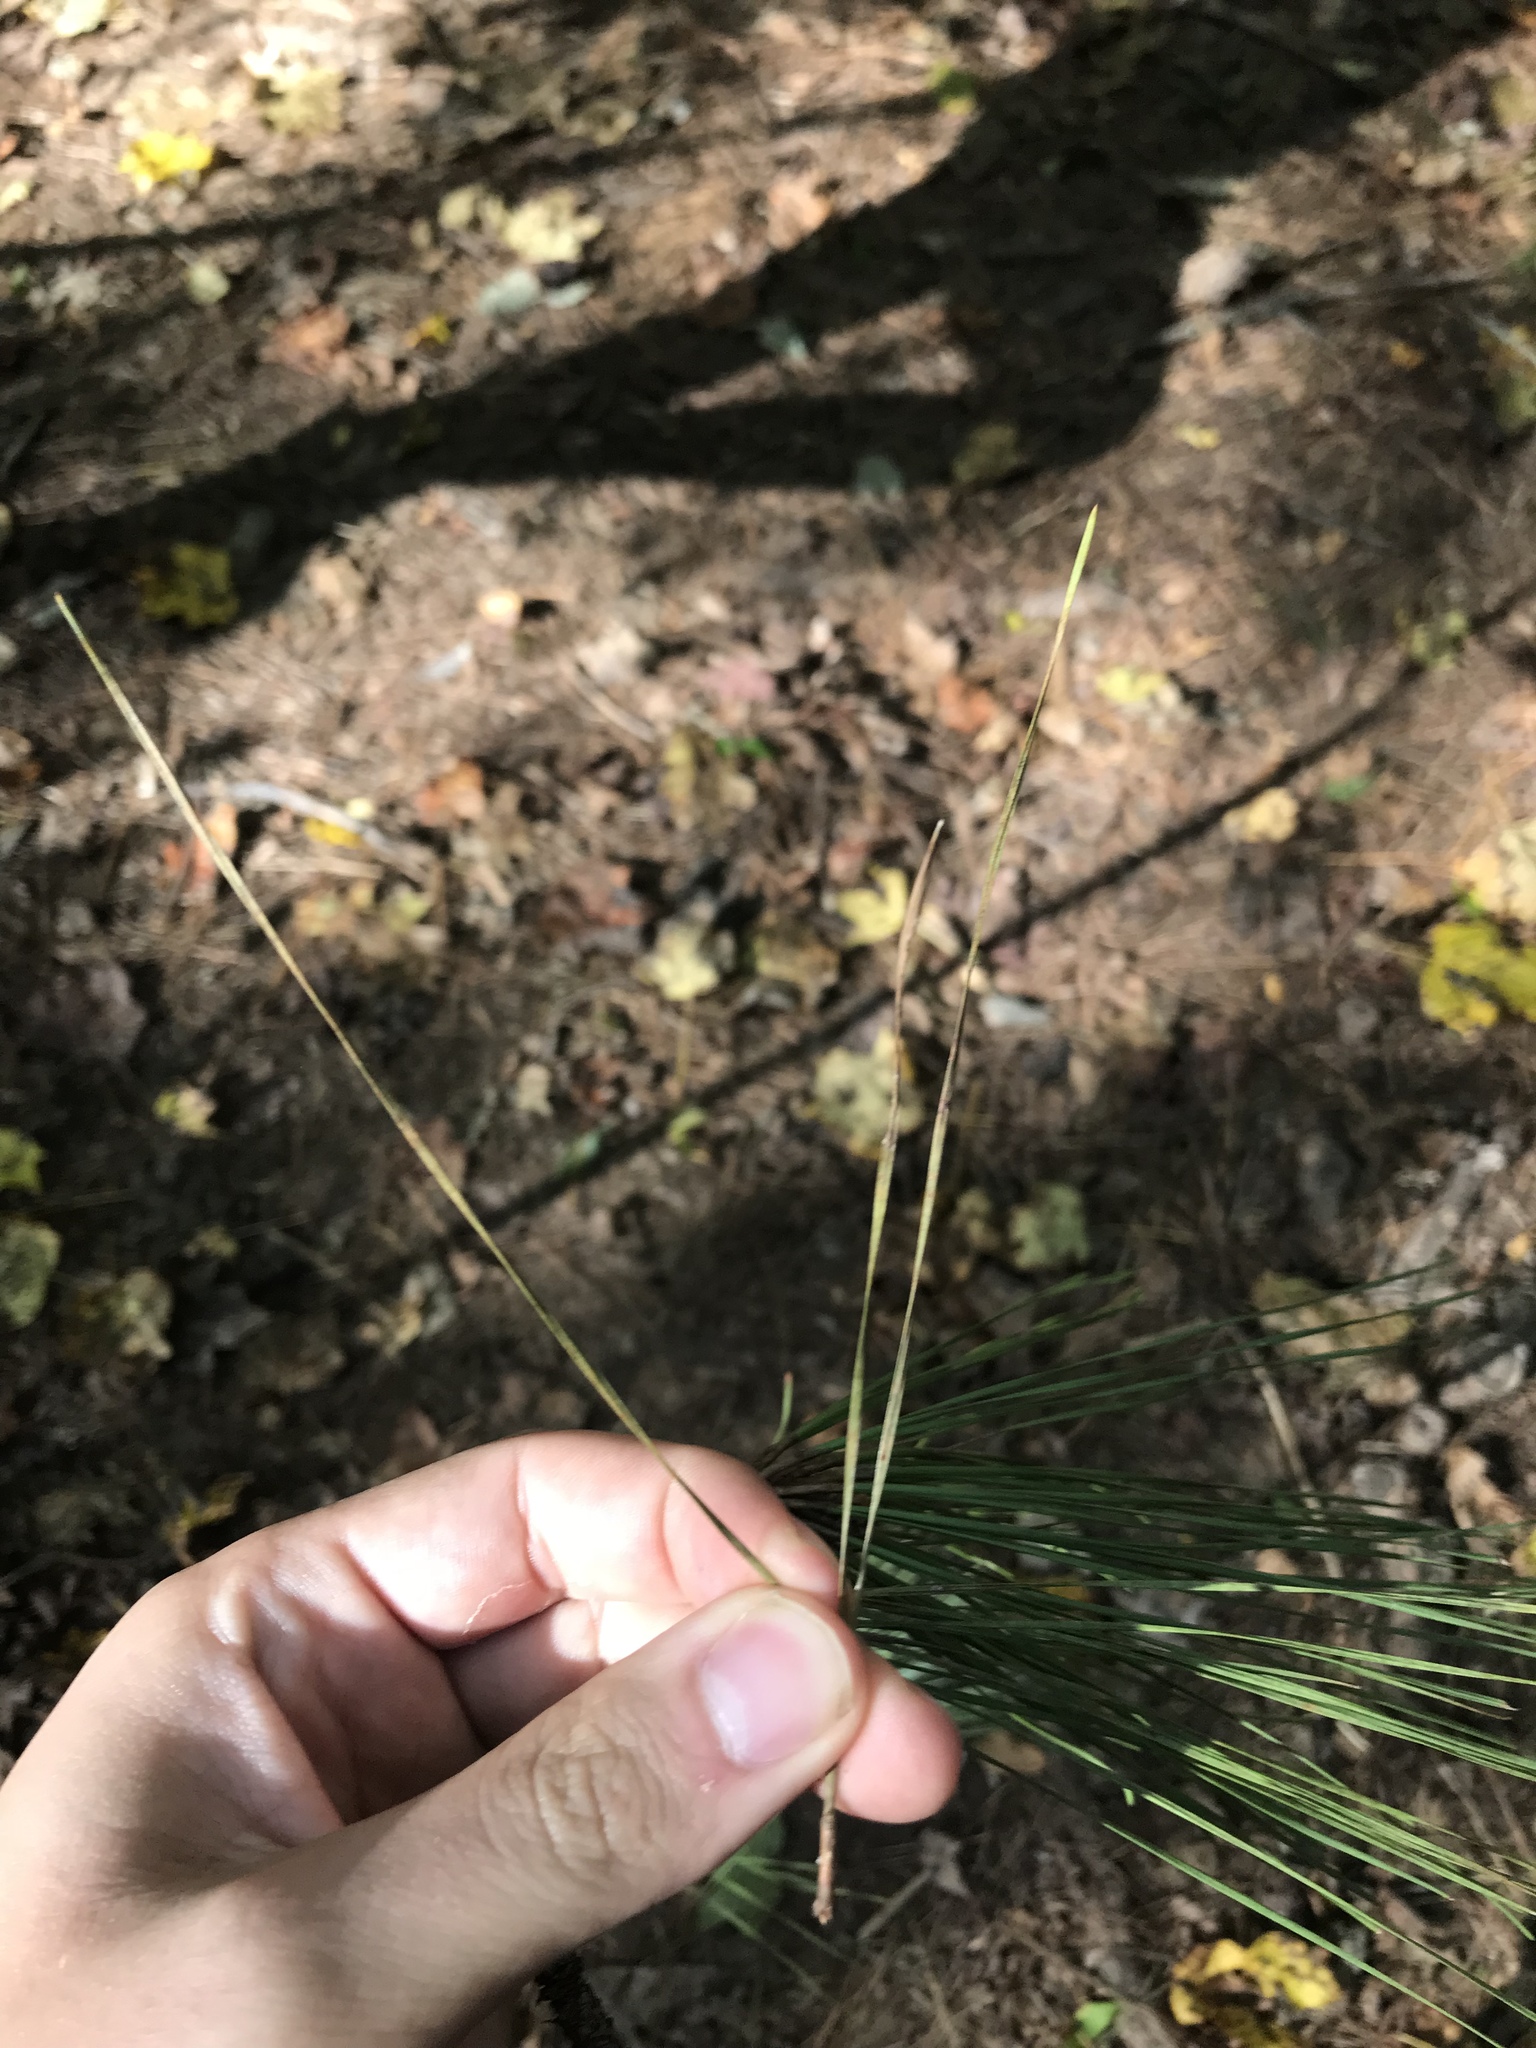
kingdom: Plantae
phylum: Tracheophyta
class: Pinopsida
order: Pinales
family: Pinaceae
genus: Pinus
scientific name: Pinus taeda
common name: Loblolly pine
